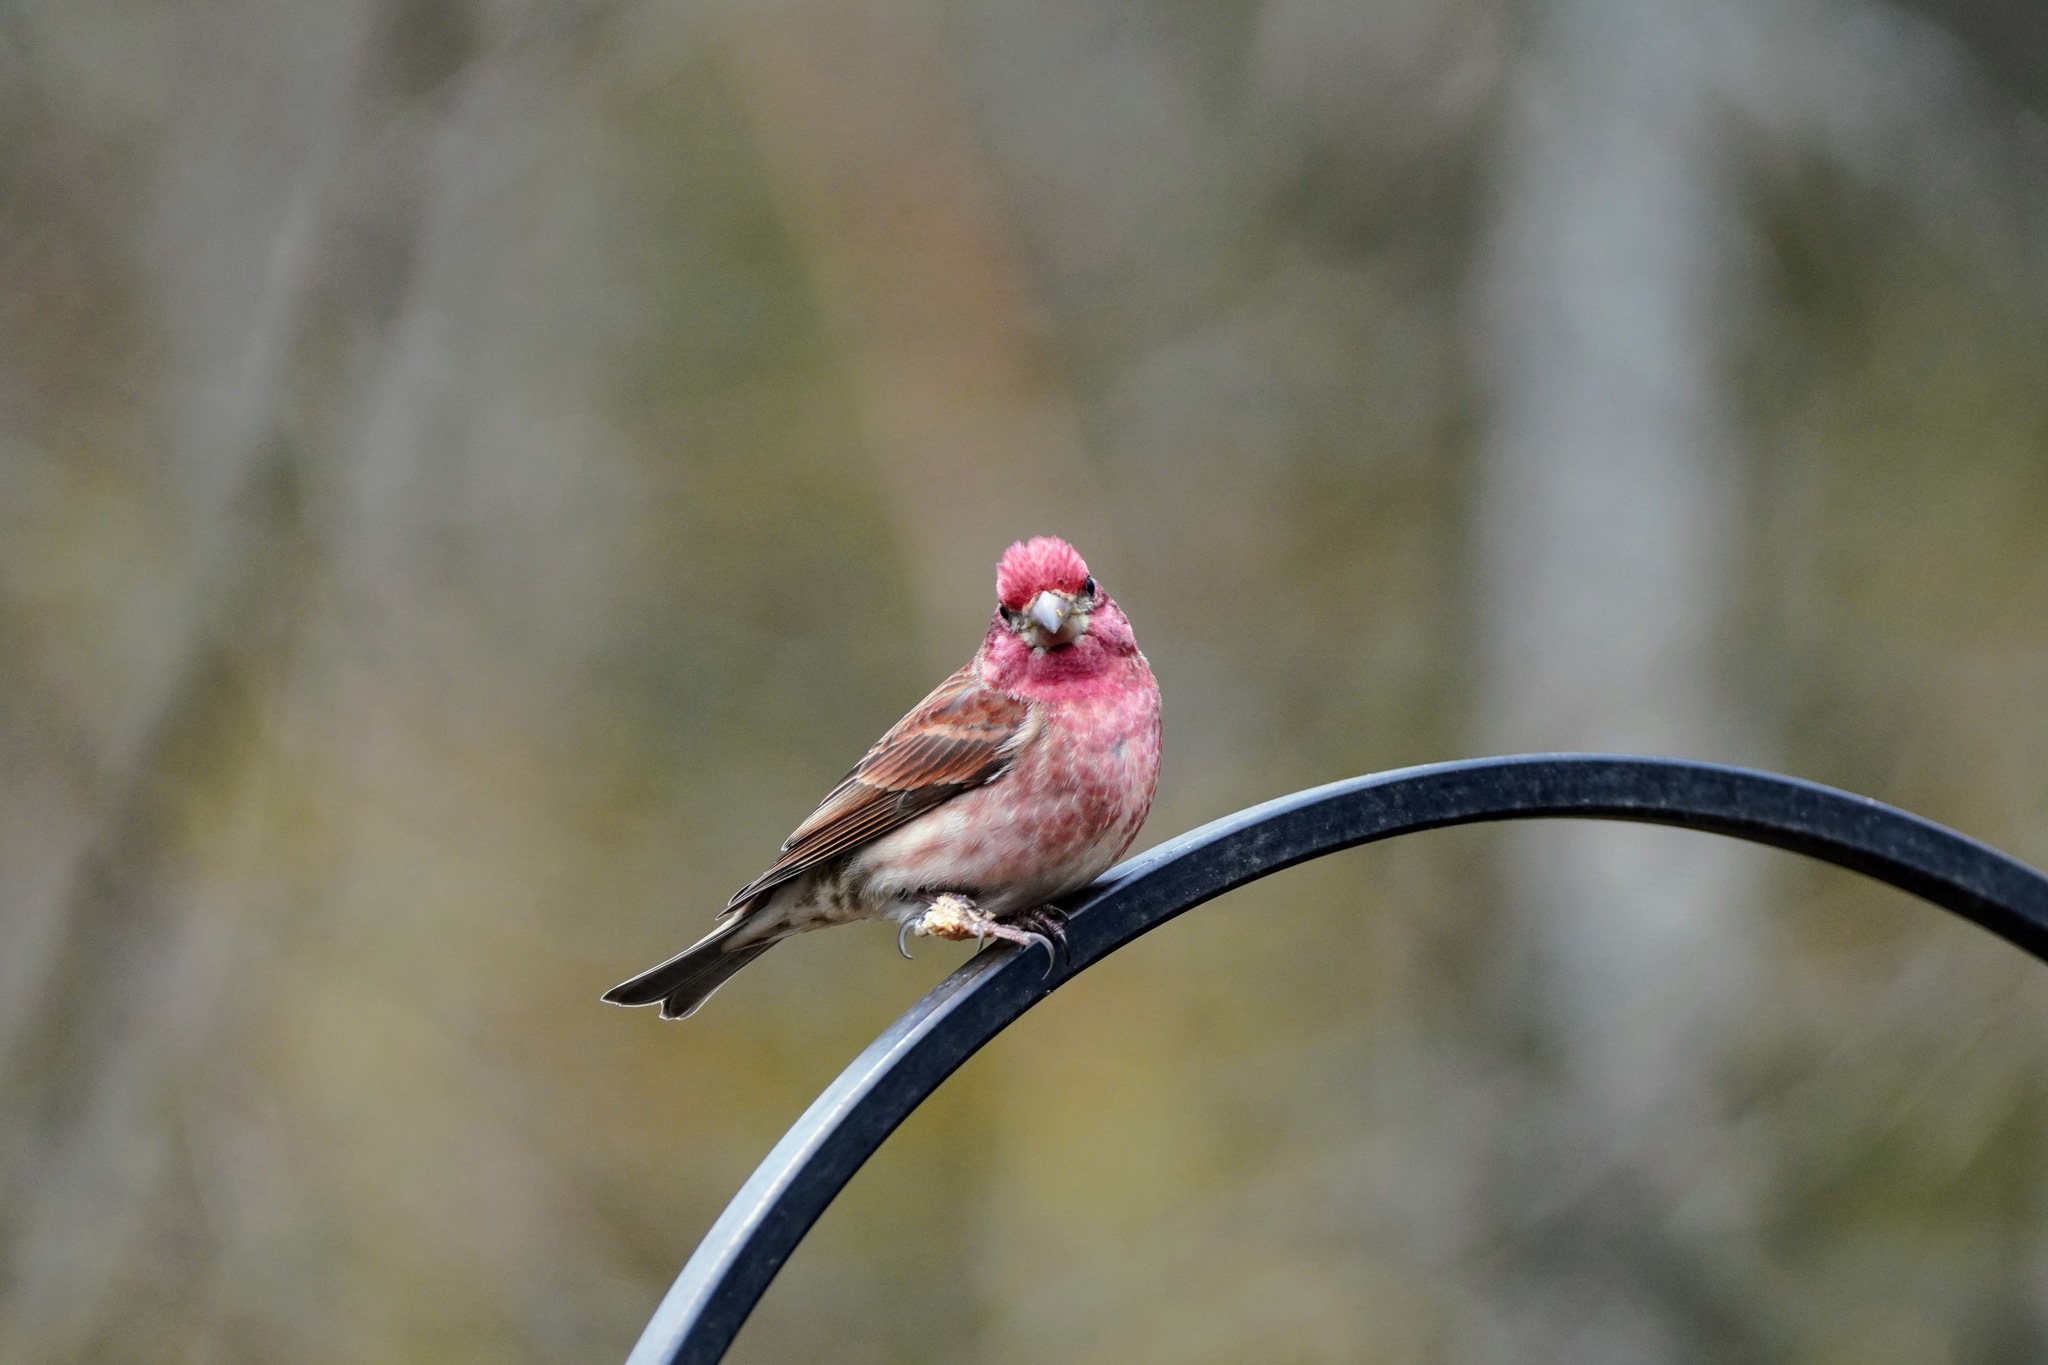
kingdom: Animalia
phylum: Chordata
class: Aves
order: Passeriformes
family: Fringillidae
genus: Haemorhous
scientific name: Haemorhous purpureus
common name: Purple finch
